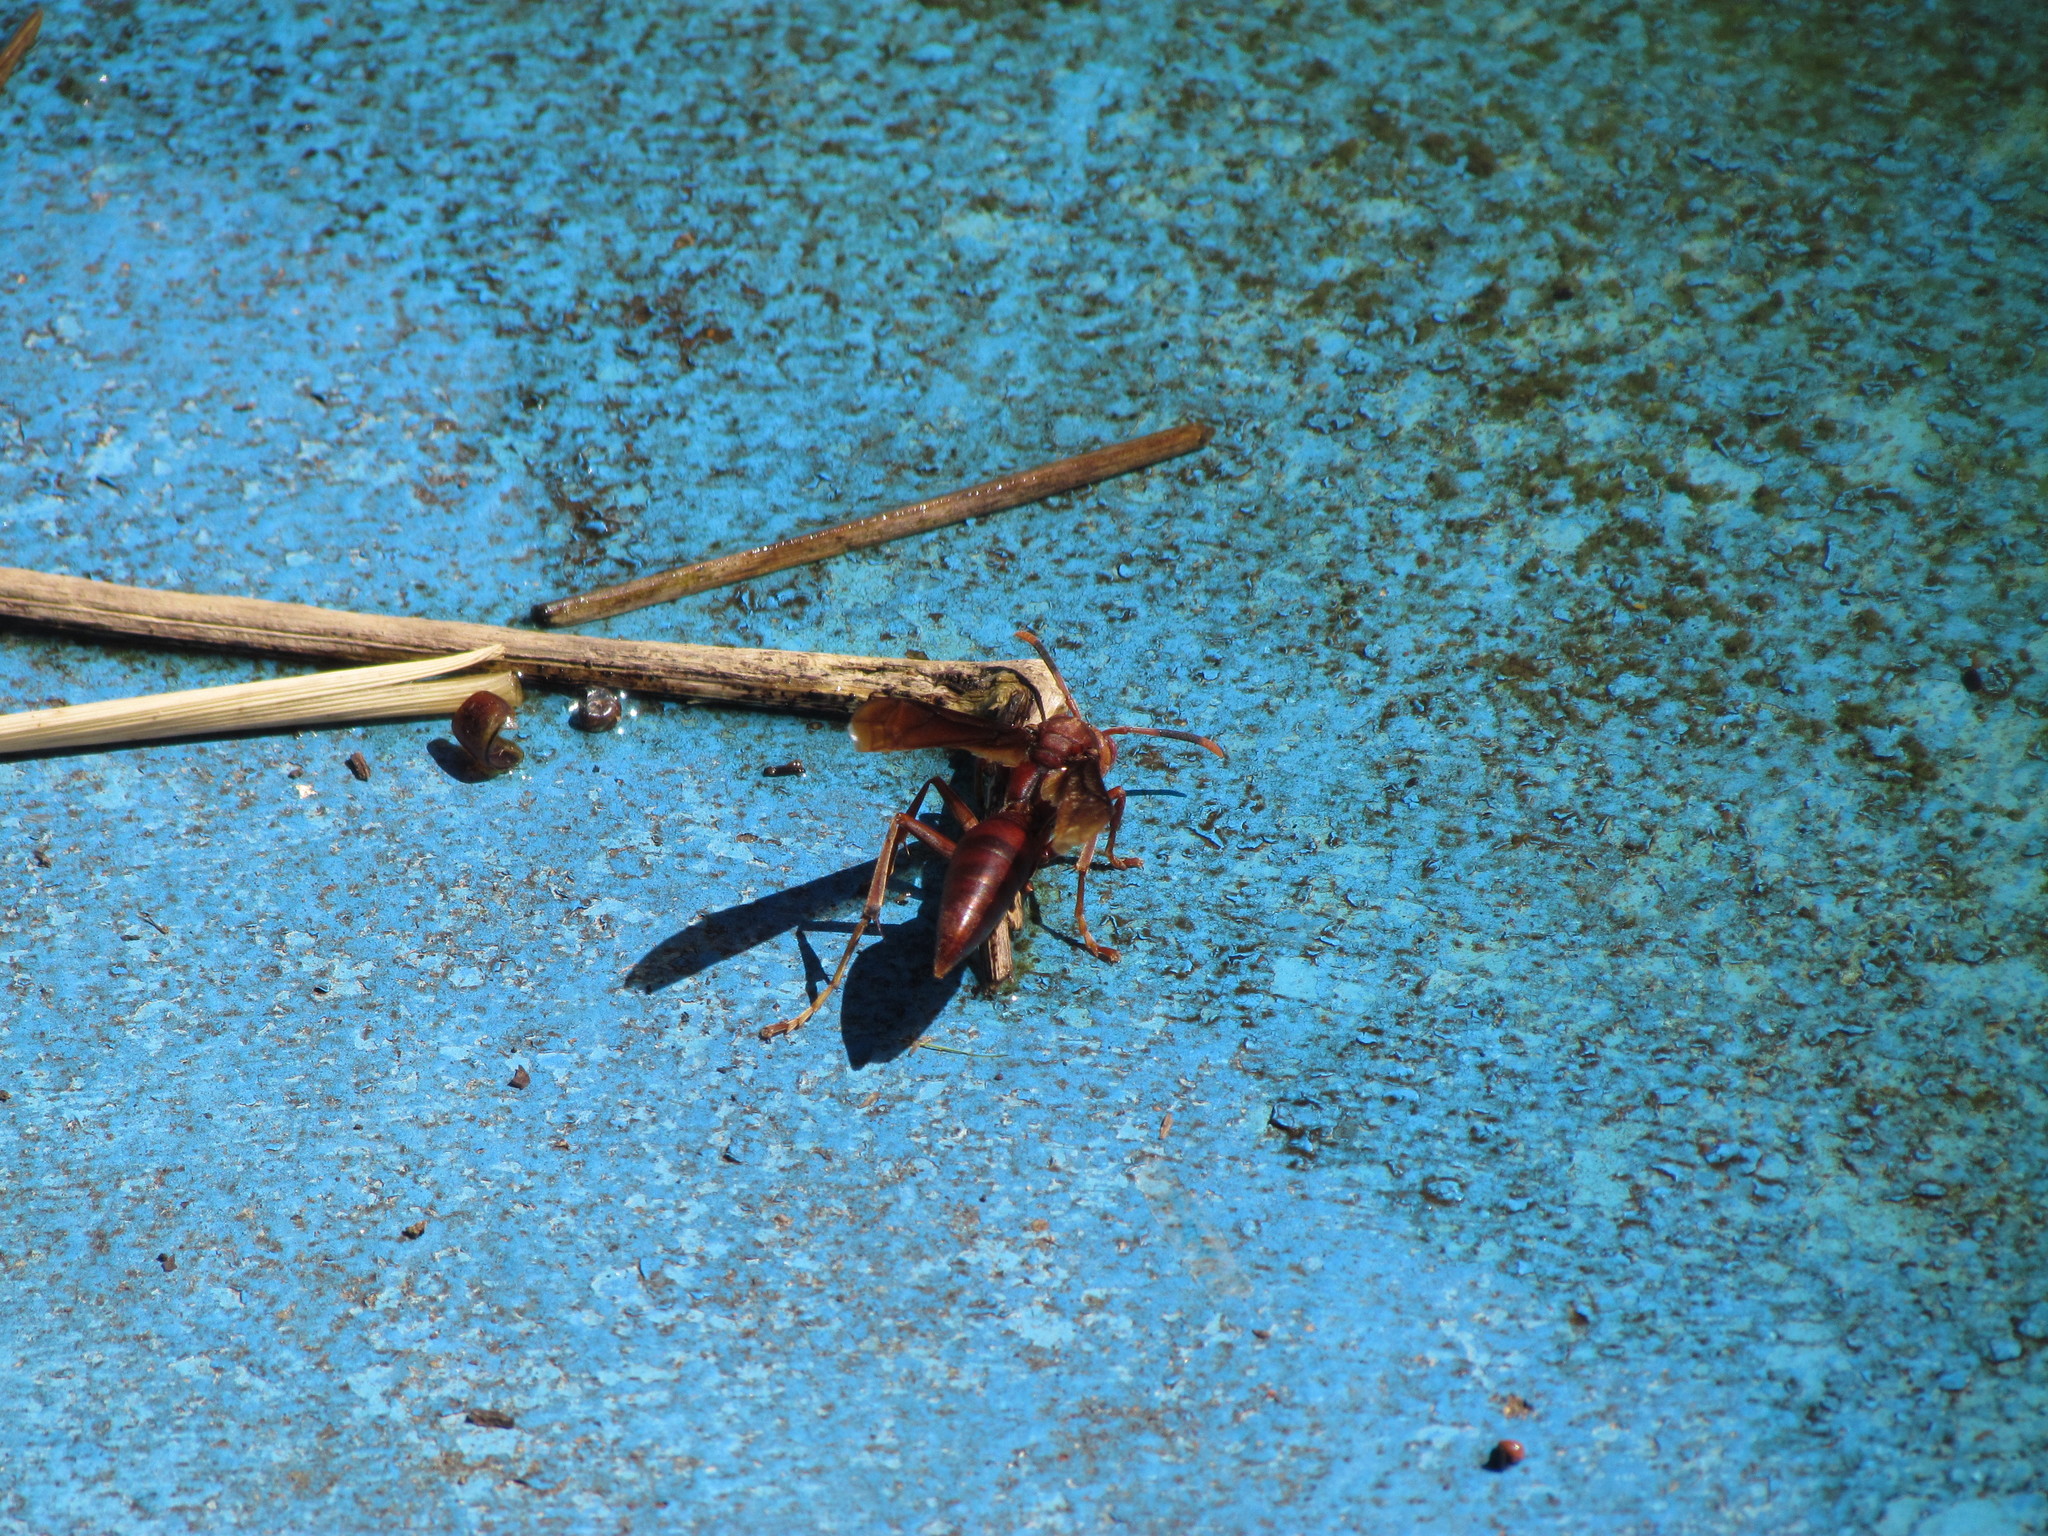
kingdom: Animalia
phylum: Arthropoda
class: Insecta
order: Hymenoptera
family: Pompilidae
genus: Aphanilopterus
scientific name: Aphanilopterus
